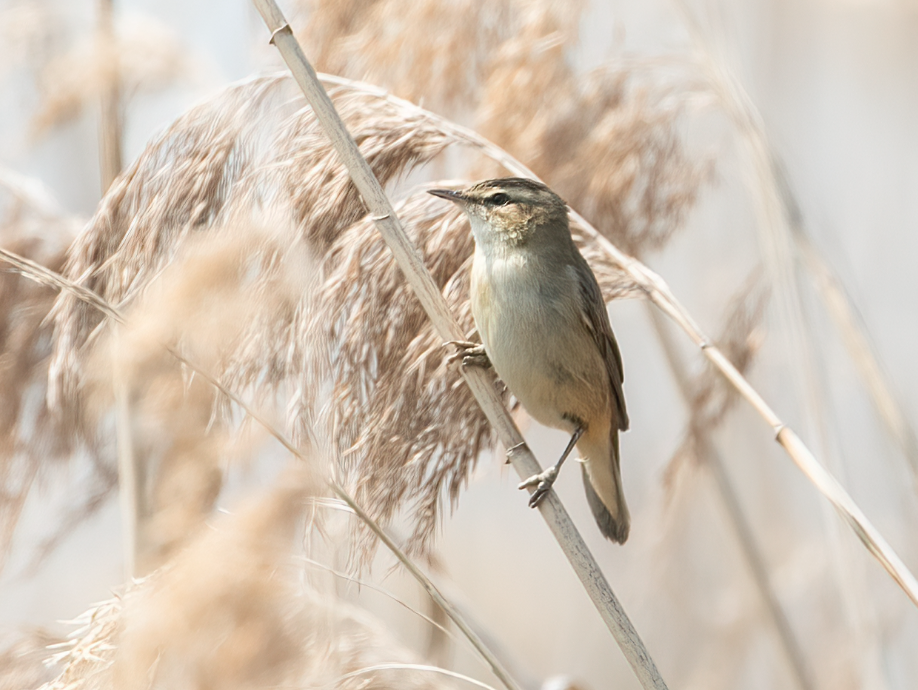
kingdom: Animalia
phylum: Chordata
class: Aves
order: Passeriformes
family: Acrocephalidae
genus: Acrocephalus
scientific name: Acrocephalus schoenobaenus
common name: Sedge warbler
